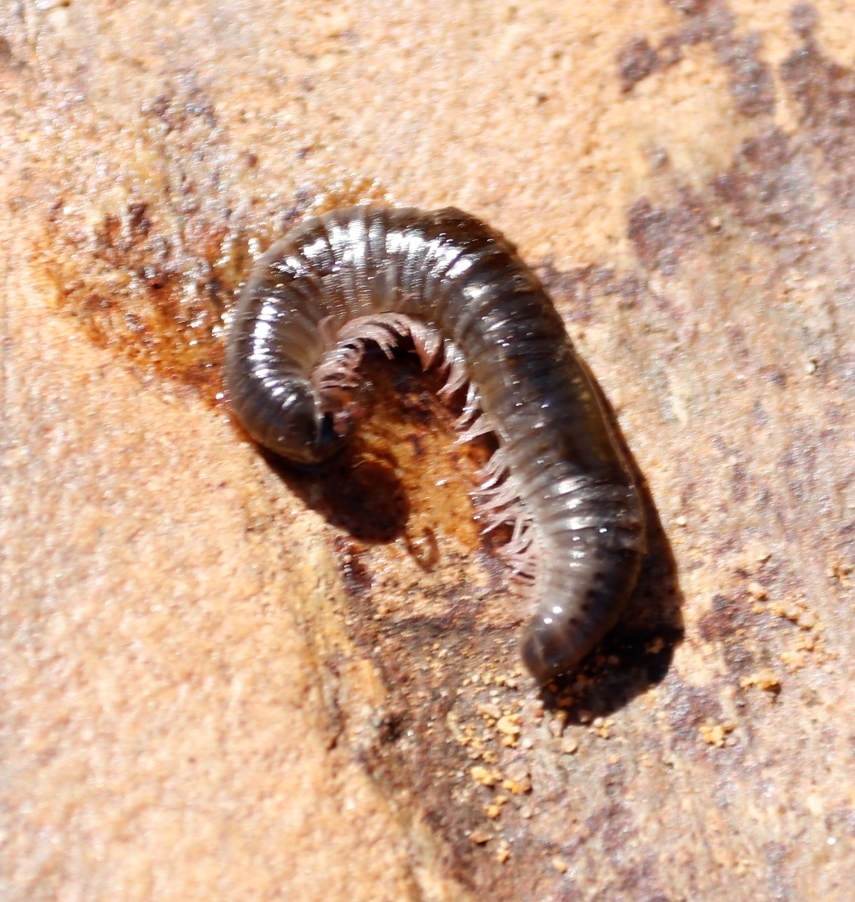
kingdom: Animalia
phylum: Arthropoda
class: Diplopoda
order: Julida
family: Julidae
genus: Ommatoiulus
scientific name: Ommatoiulus moreleti
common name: Portuguese millipede
